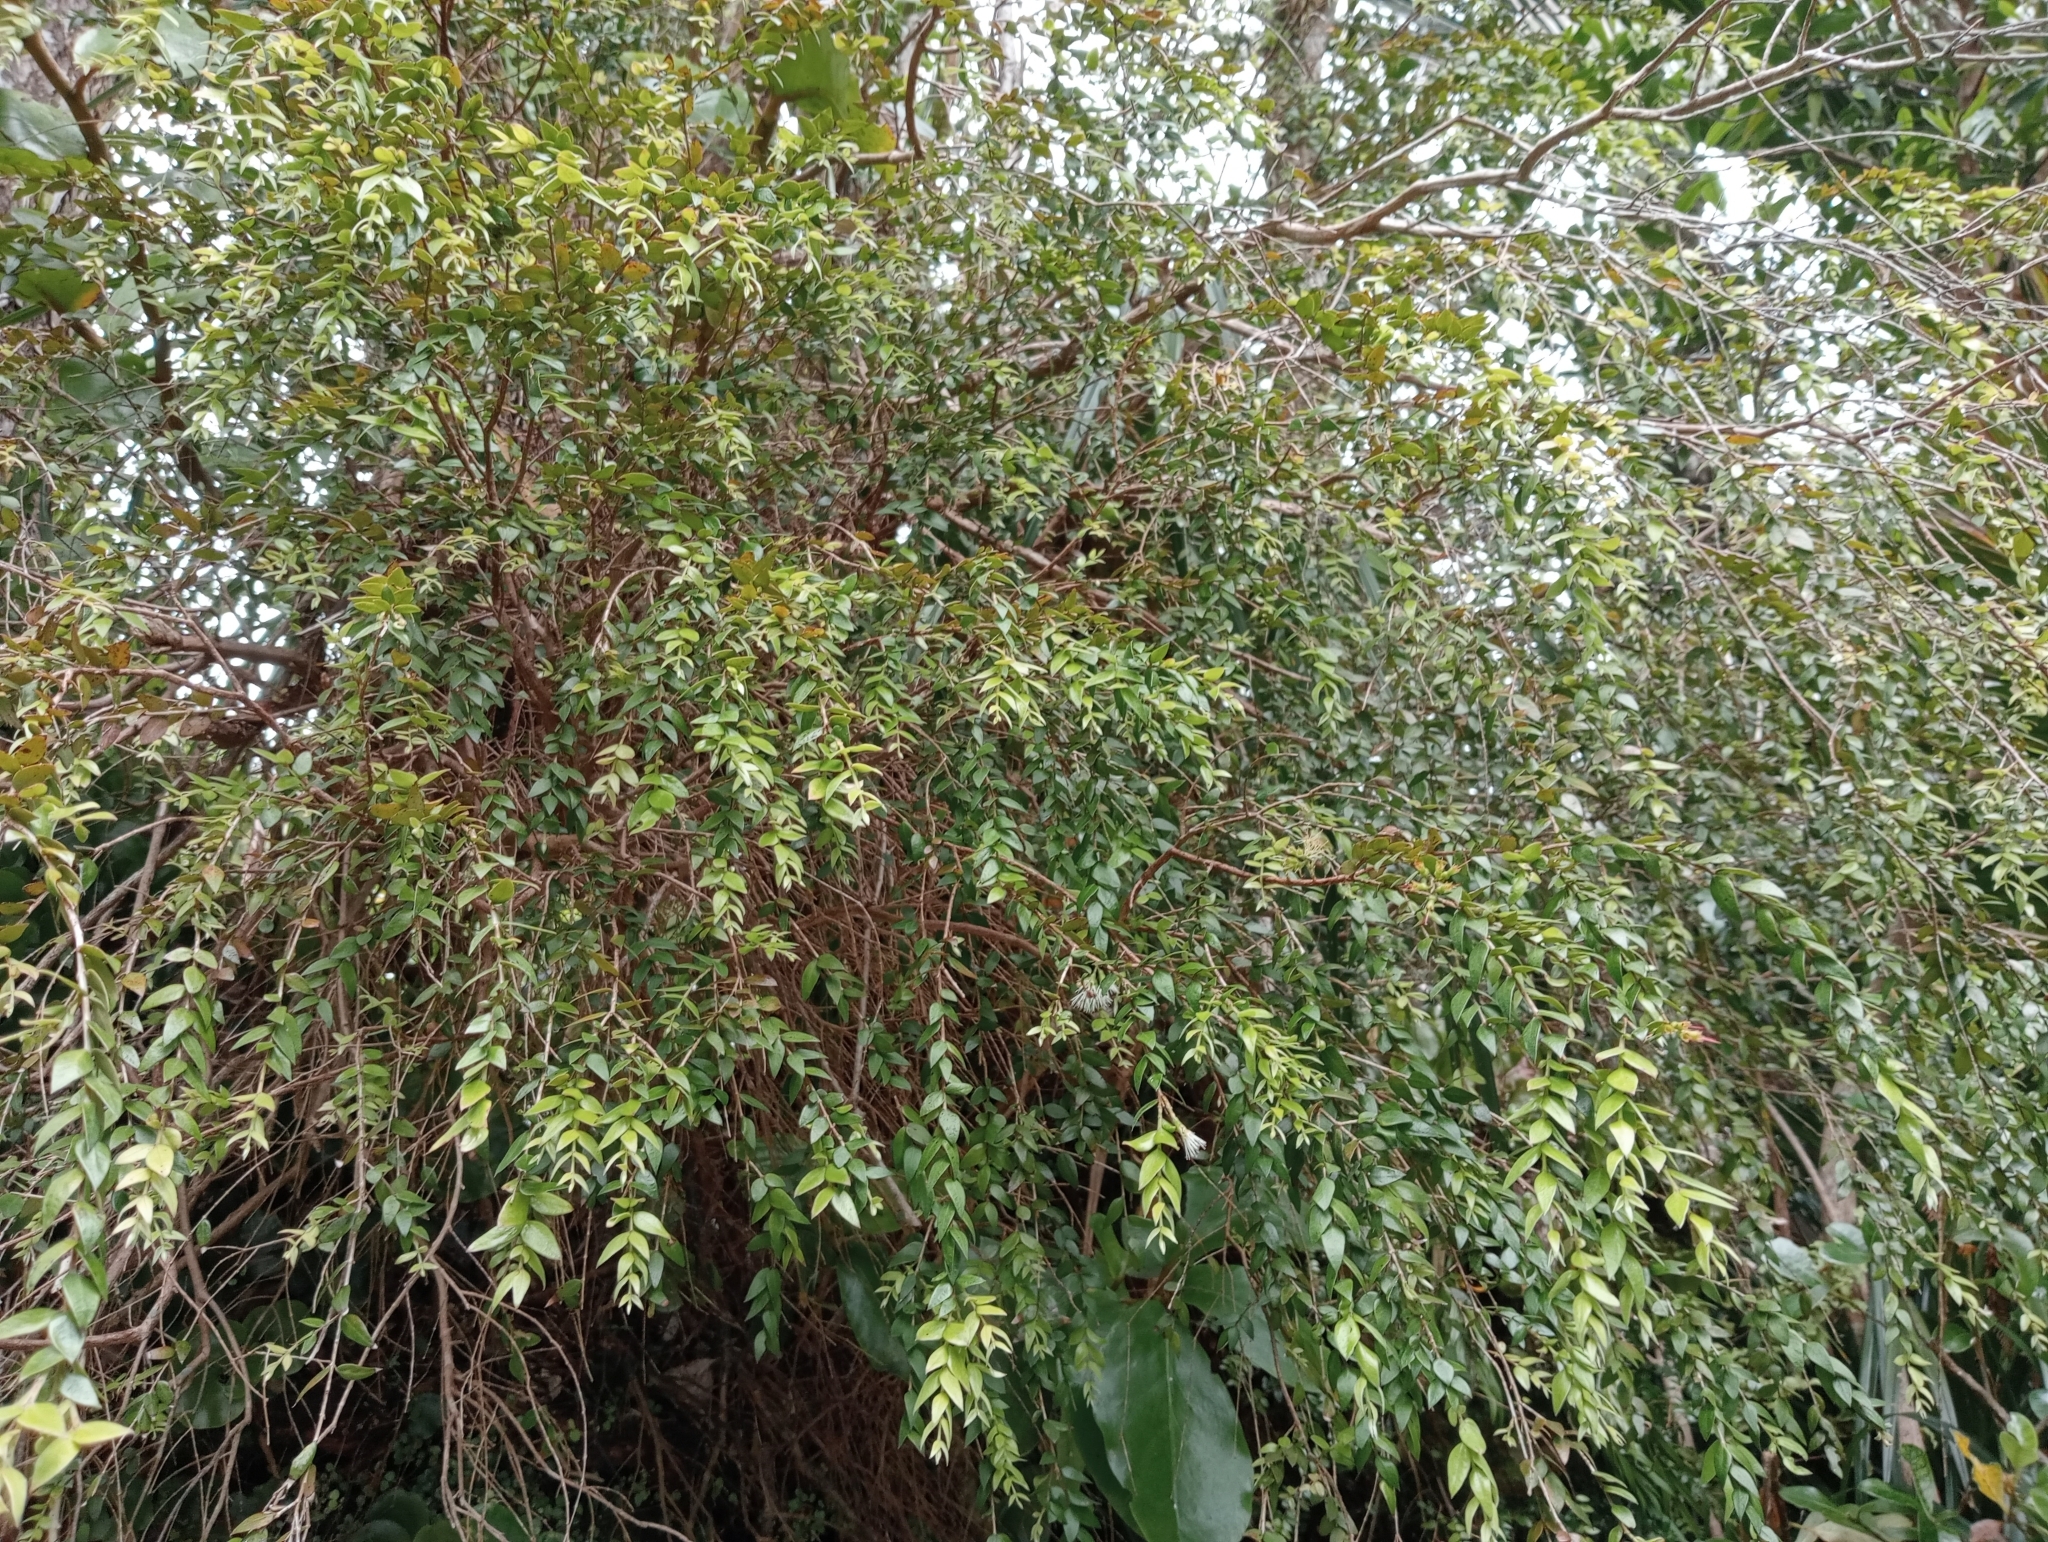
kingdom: Plantae
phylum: Tracheophyta
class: Magnoliopsida
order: Myrtales
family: Myrtaceae
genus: Metrosideros
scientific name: Metrosideros colensoi
